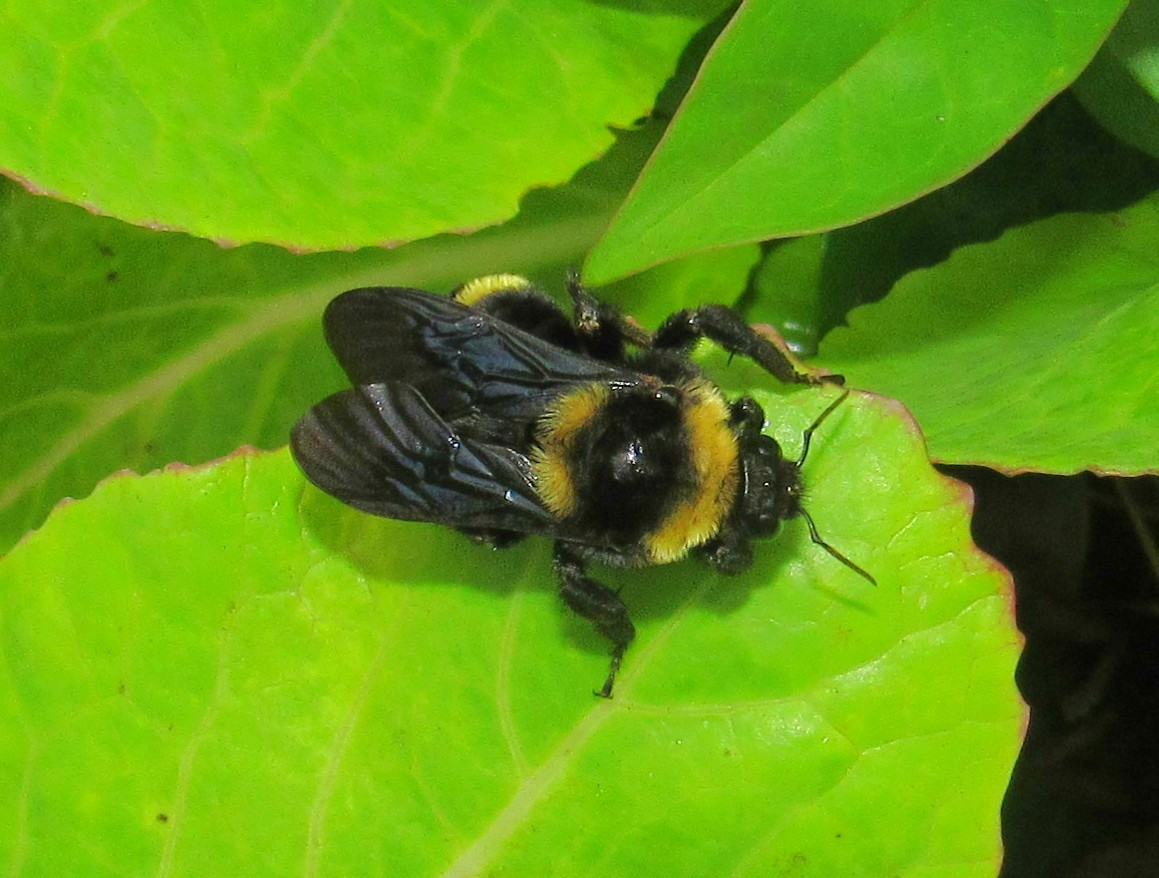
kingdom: Animalia
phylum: Arthropoda
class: Insecta
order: Hymenoptera
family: Apidae
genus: Bombus
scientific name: Bombus pauloensis
